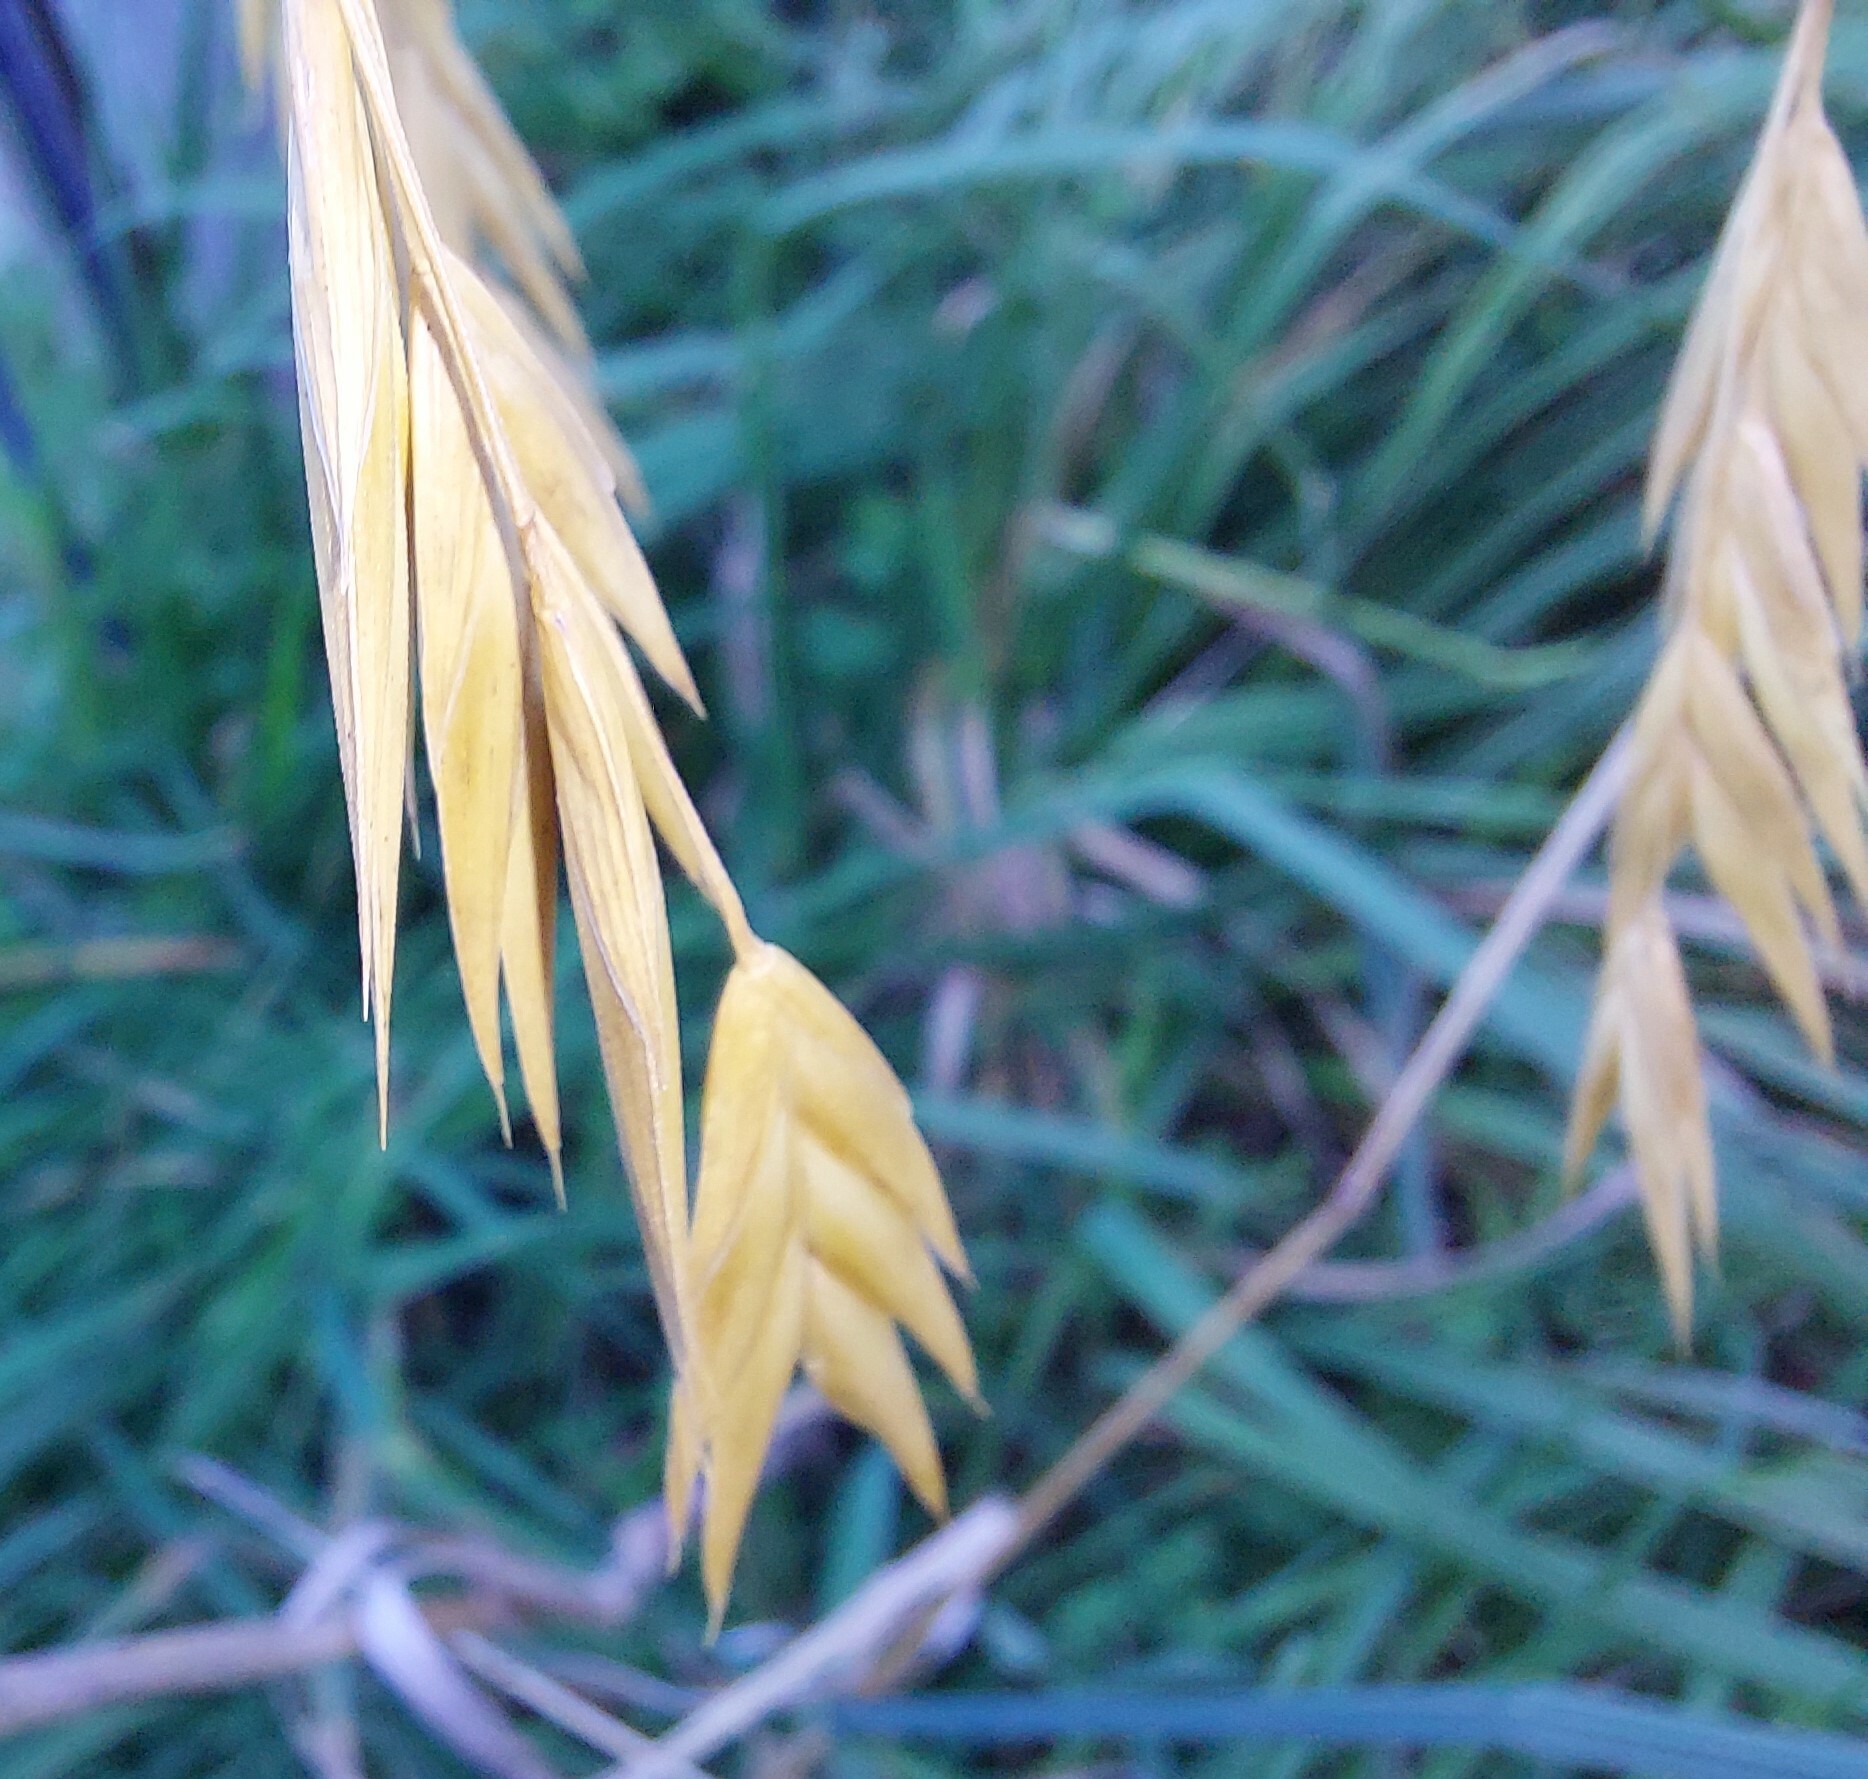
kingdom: Plantae
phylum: Tracheophyta
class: Liliopsida
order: Poales
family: Poaceae
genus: Bromus
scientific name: Bromus catharticus
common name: Rescuegrass
